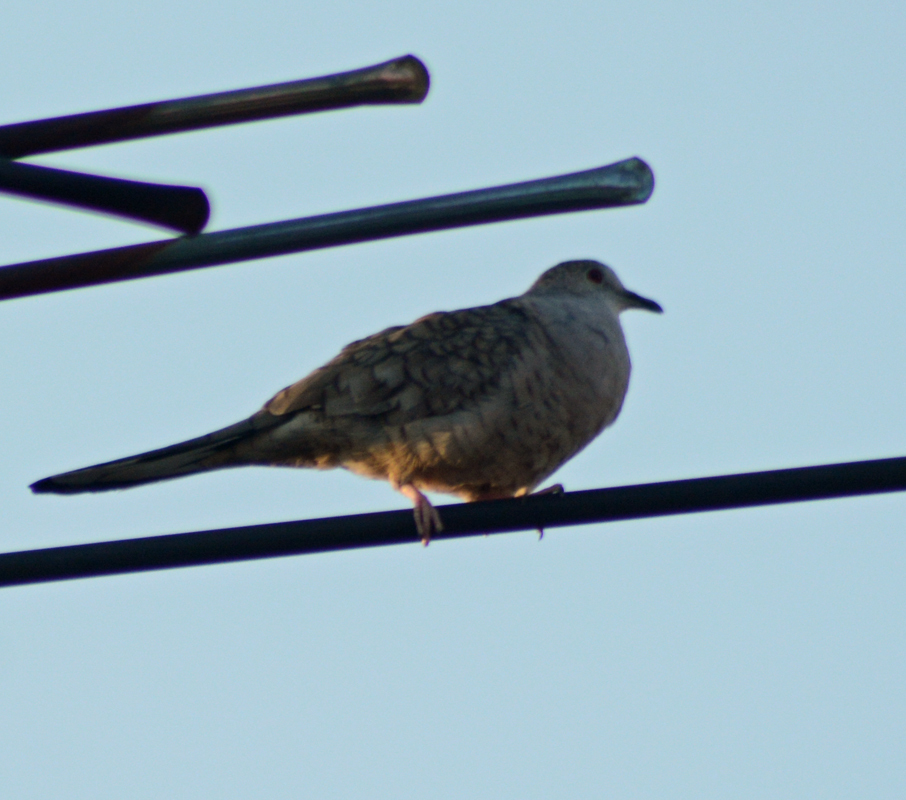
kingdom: Animalia
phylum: Chordata
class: Aves
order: Columbiformes
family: Columbidae
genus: Columbina
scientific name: Columbina inca
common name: Inca dove
